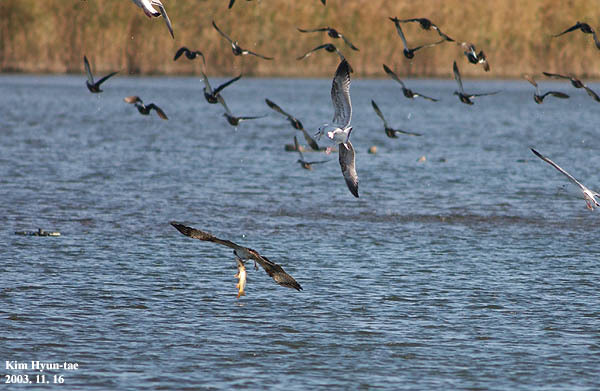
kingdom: Animalia
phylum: Chordata
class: Aves
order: Accipitriformes
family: Pandionidae
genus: Pandion
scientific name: Pandion haliaetus
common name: Osprey
